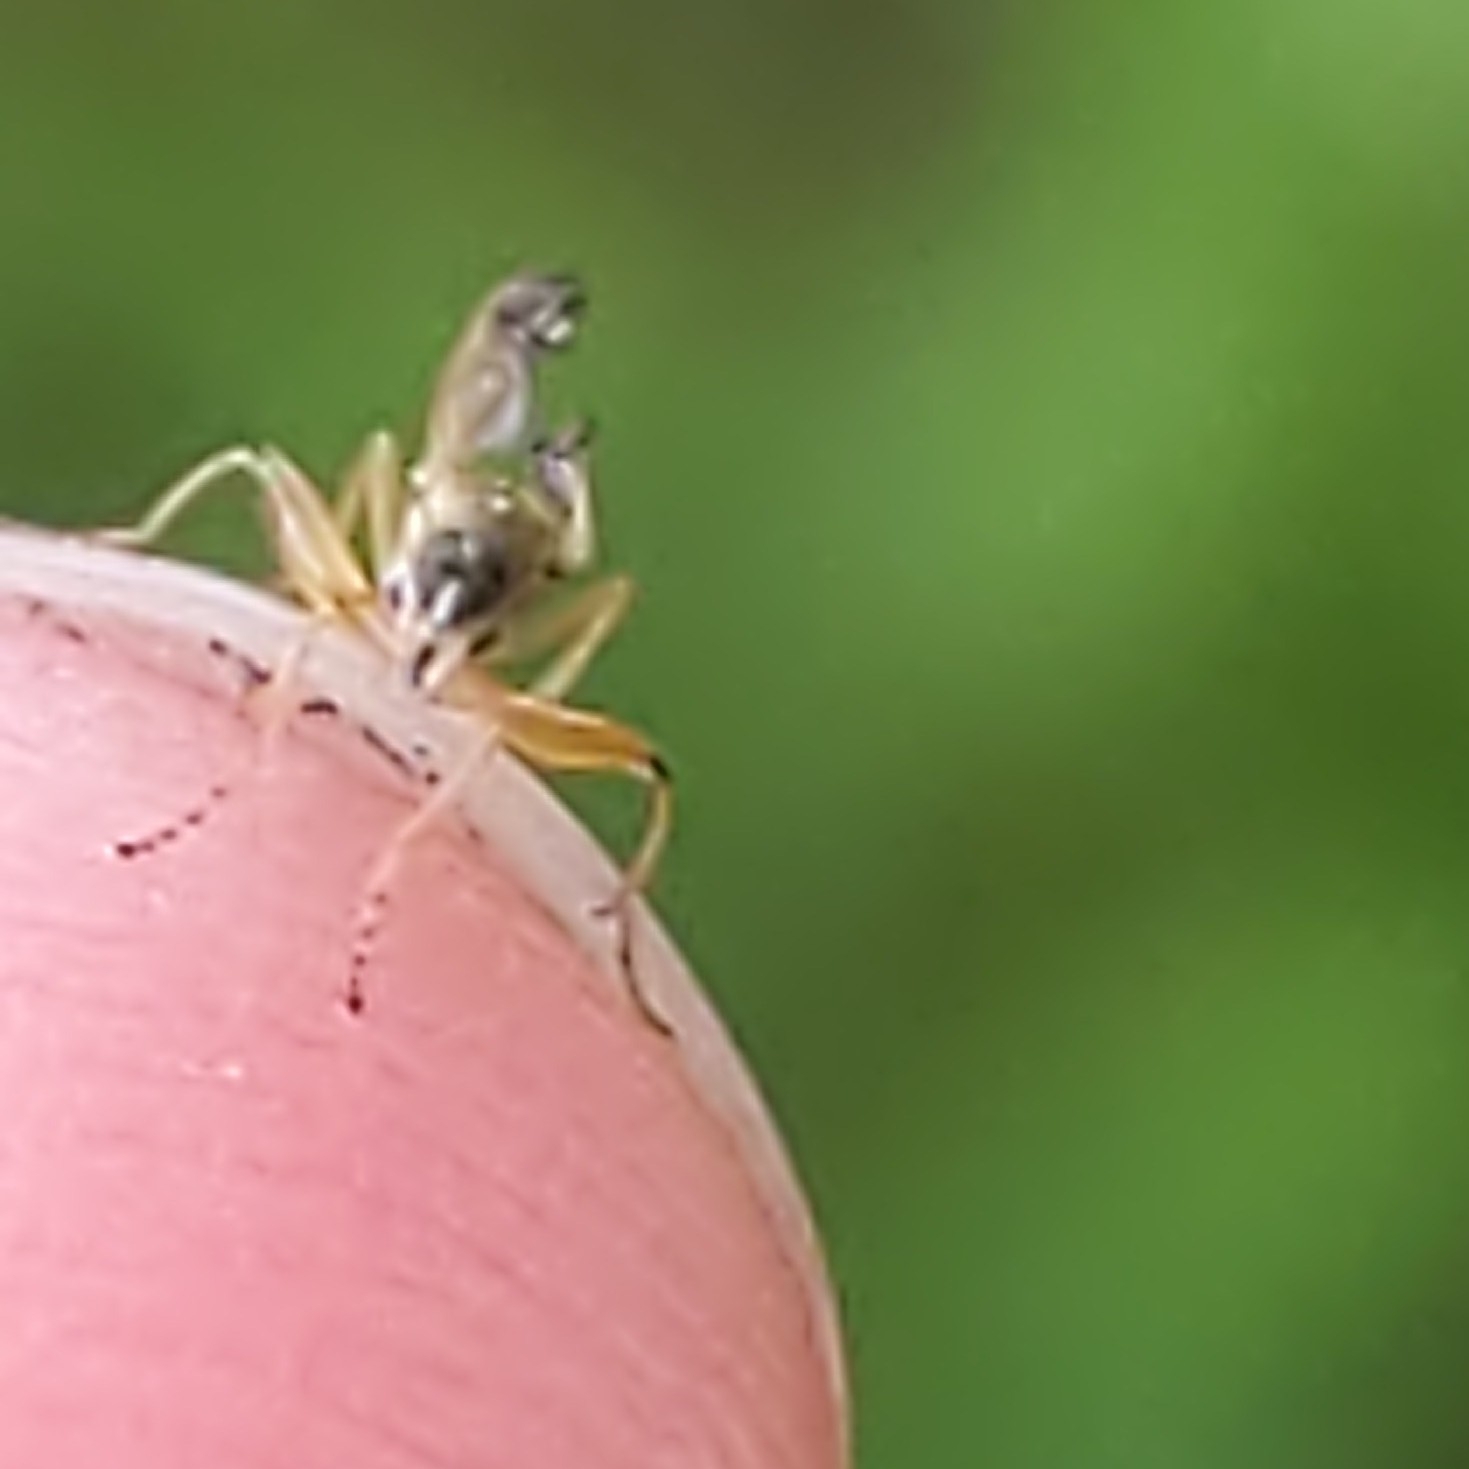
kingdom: Animalia
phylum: Arthropoda
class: Insecta
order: Diptera
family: Hybotidae
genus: Platypalpus
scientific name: Platypalpus
